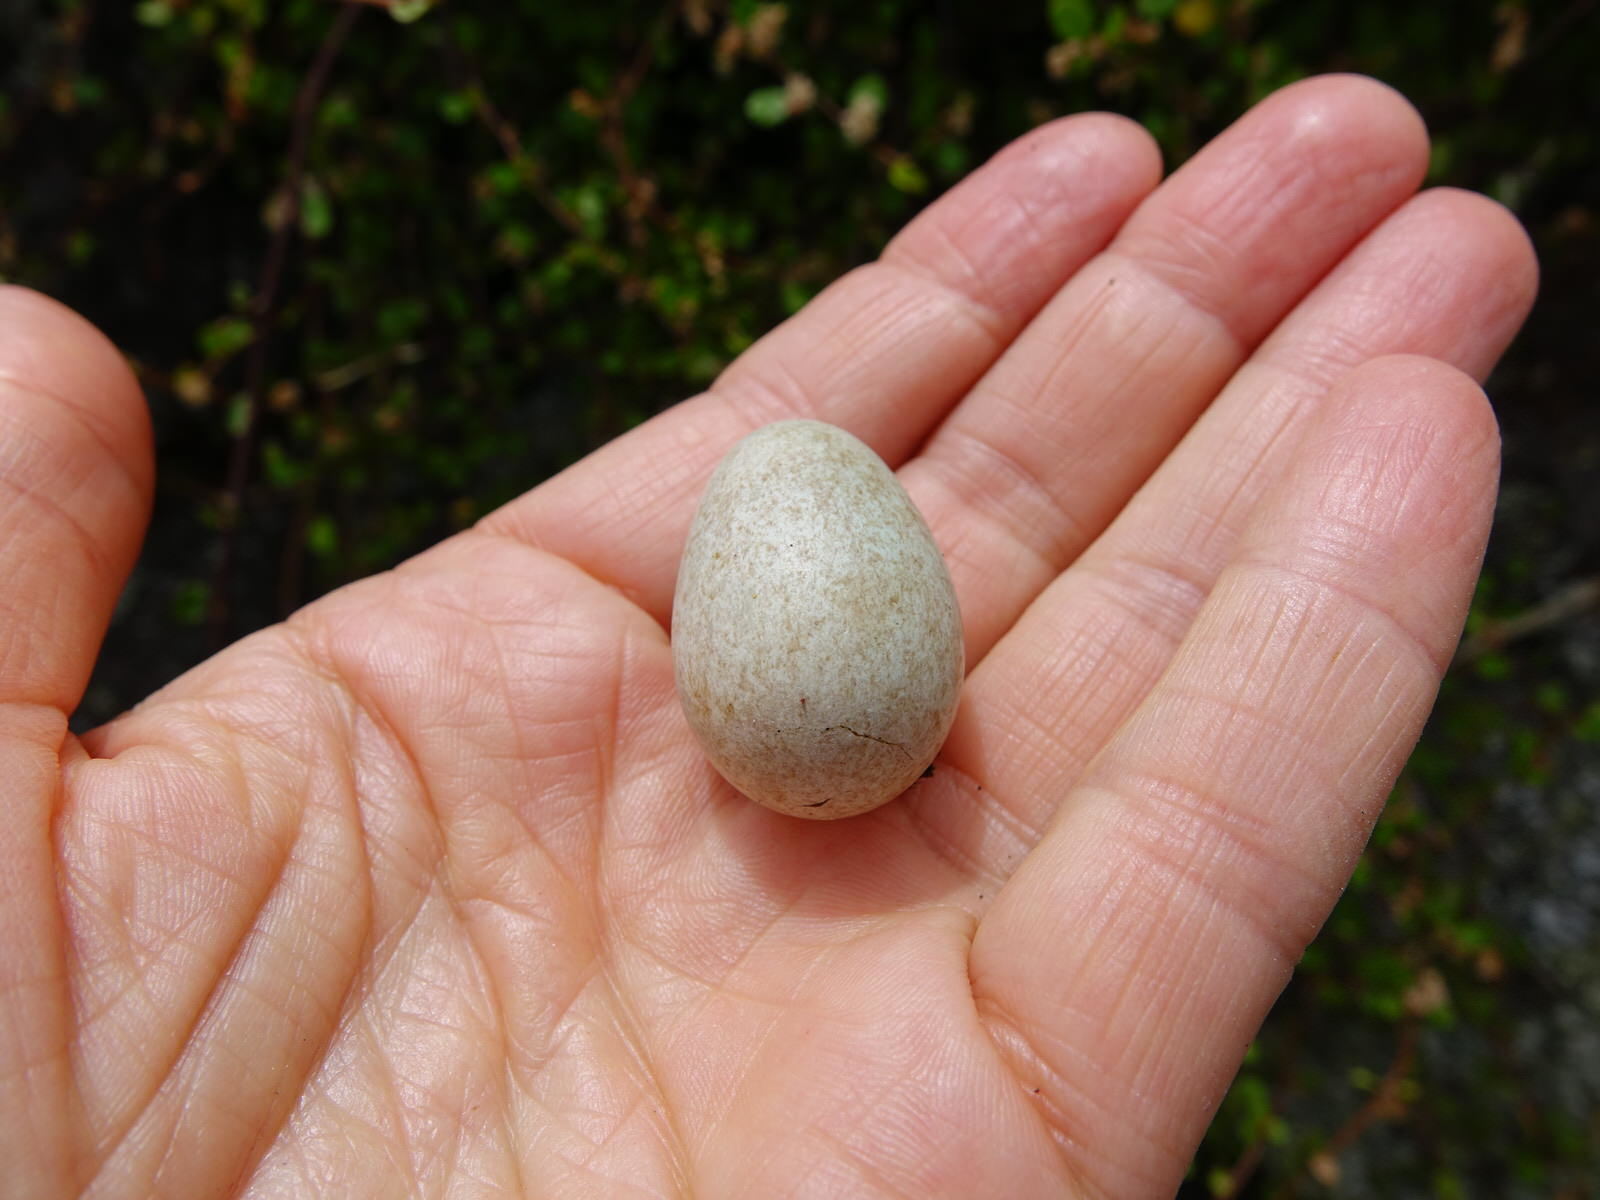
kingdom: Animalia
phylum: Chordata
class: Aves
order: Passeriformes
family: Turdidae
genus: Turdus
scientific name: Turdus merula
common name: Common blackbird
